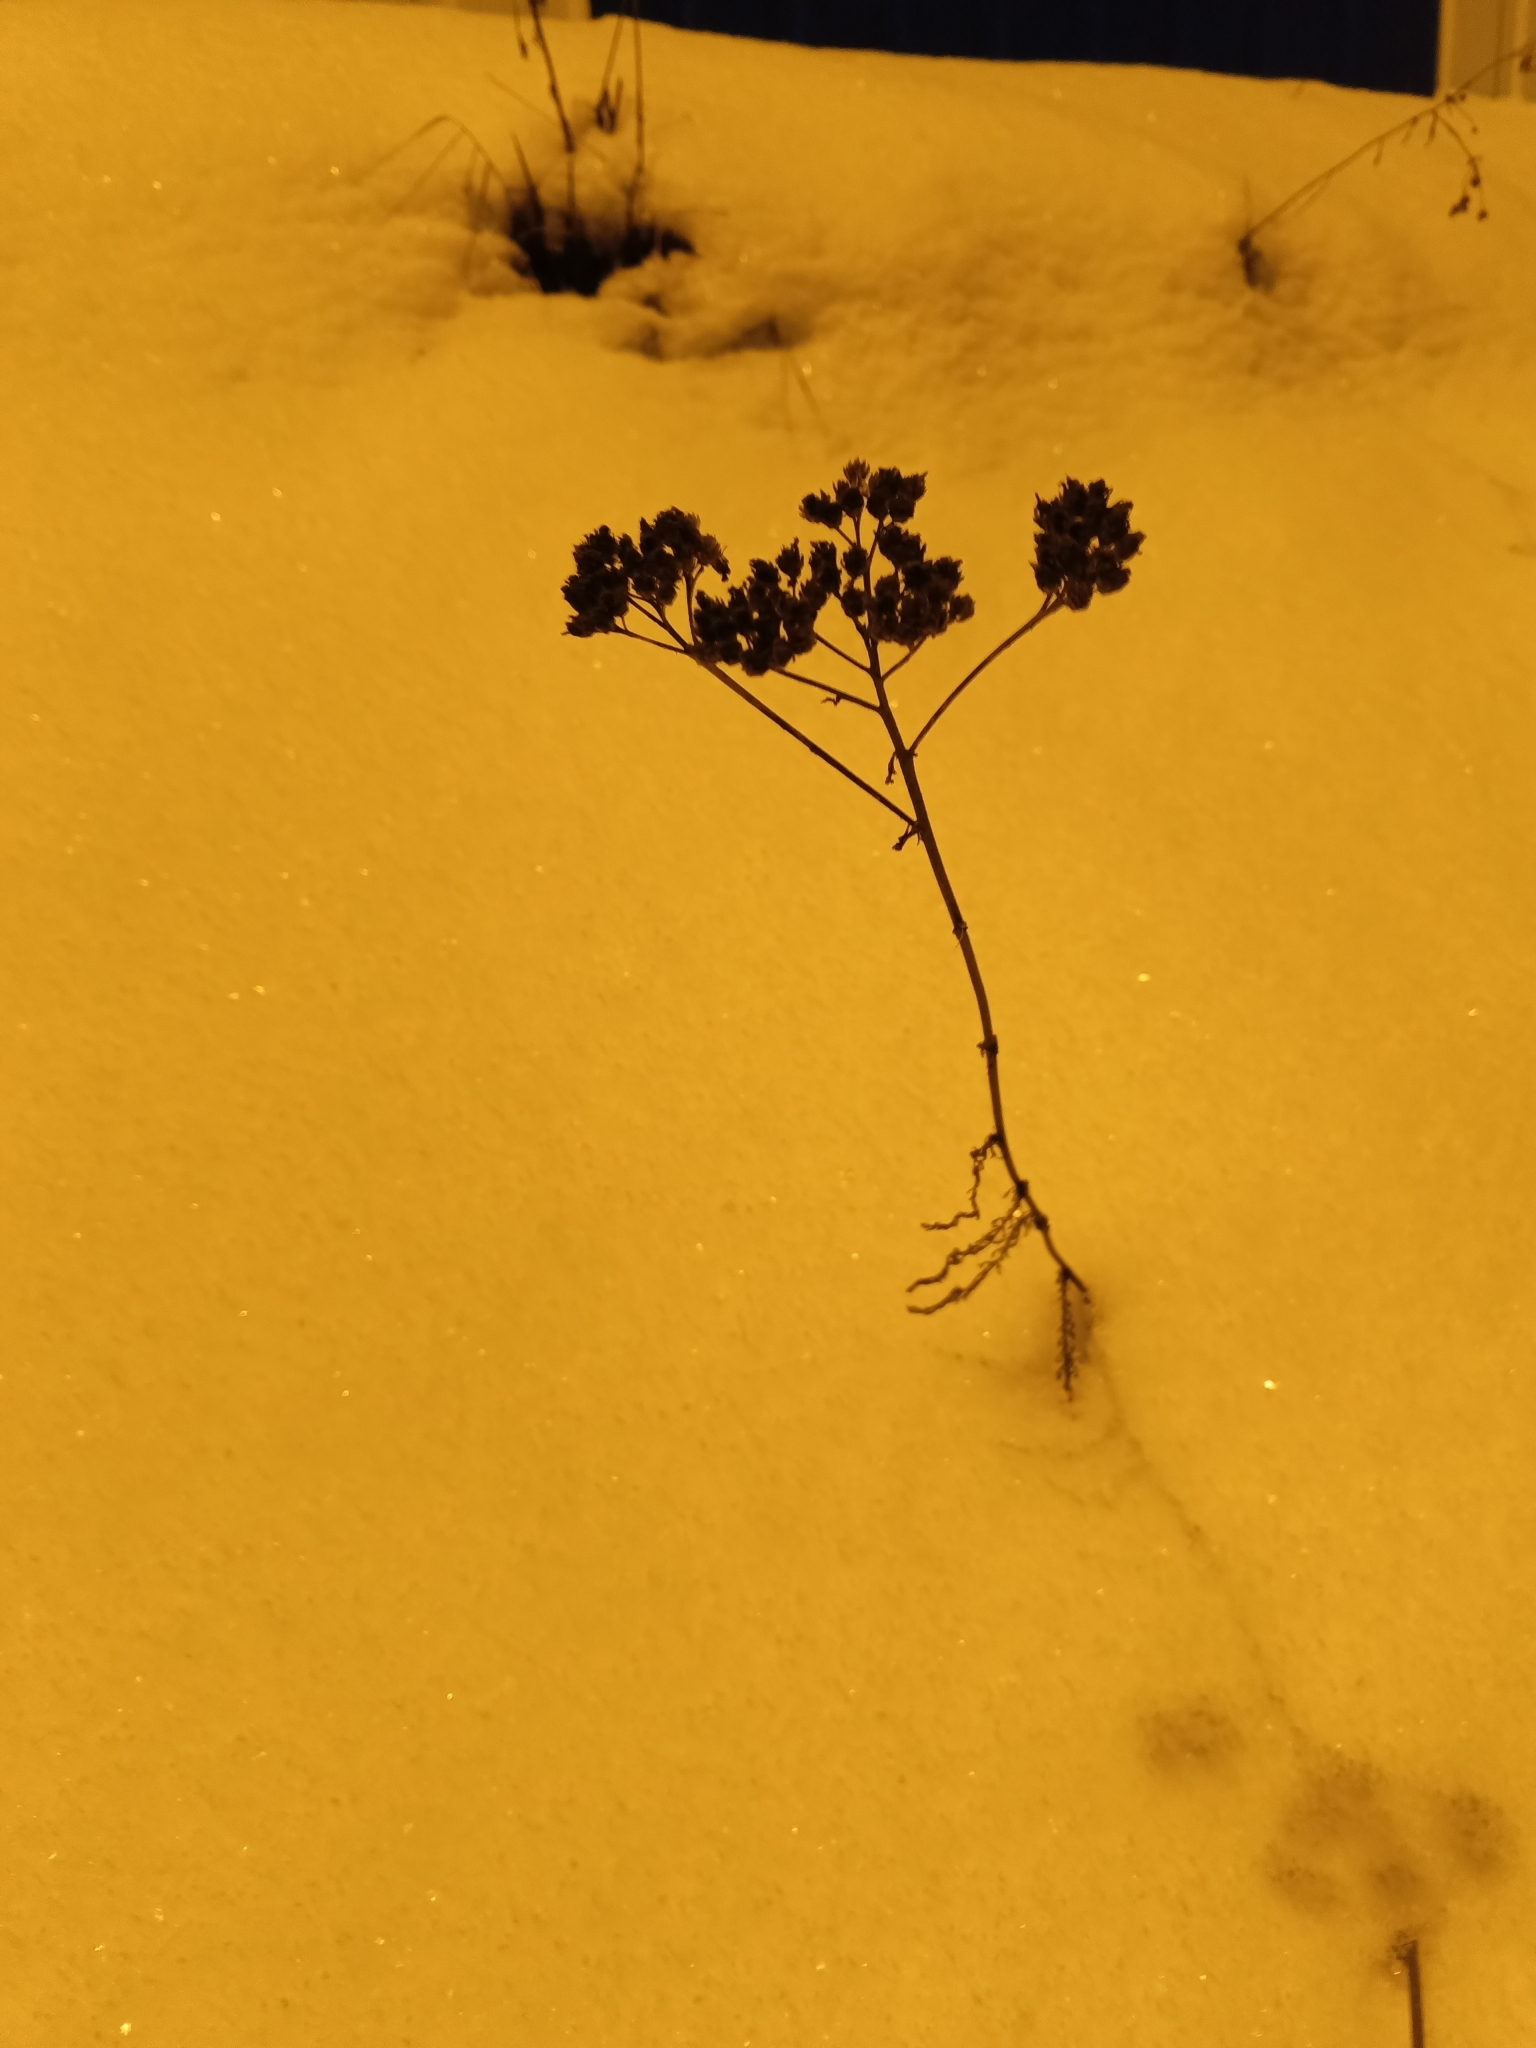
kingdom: Plantae
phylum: Tracheophyta
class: Magnoliopsida
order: Asterales
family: Asteraceae
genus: Achillea
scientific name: Achillea millefolium
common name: Yarrow
